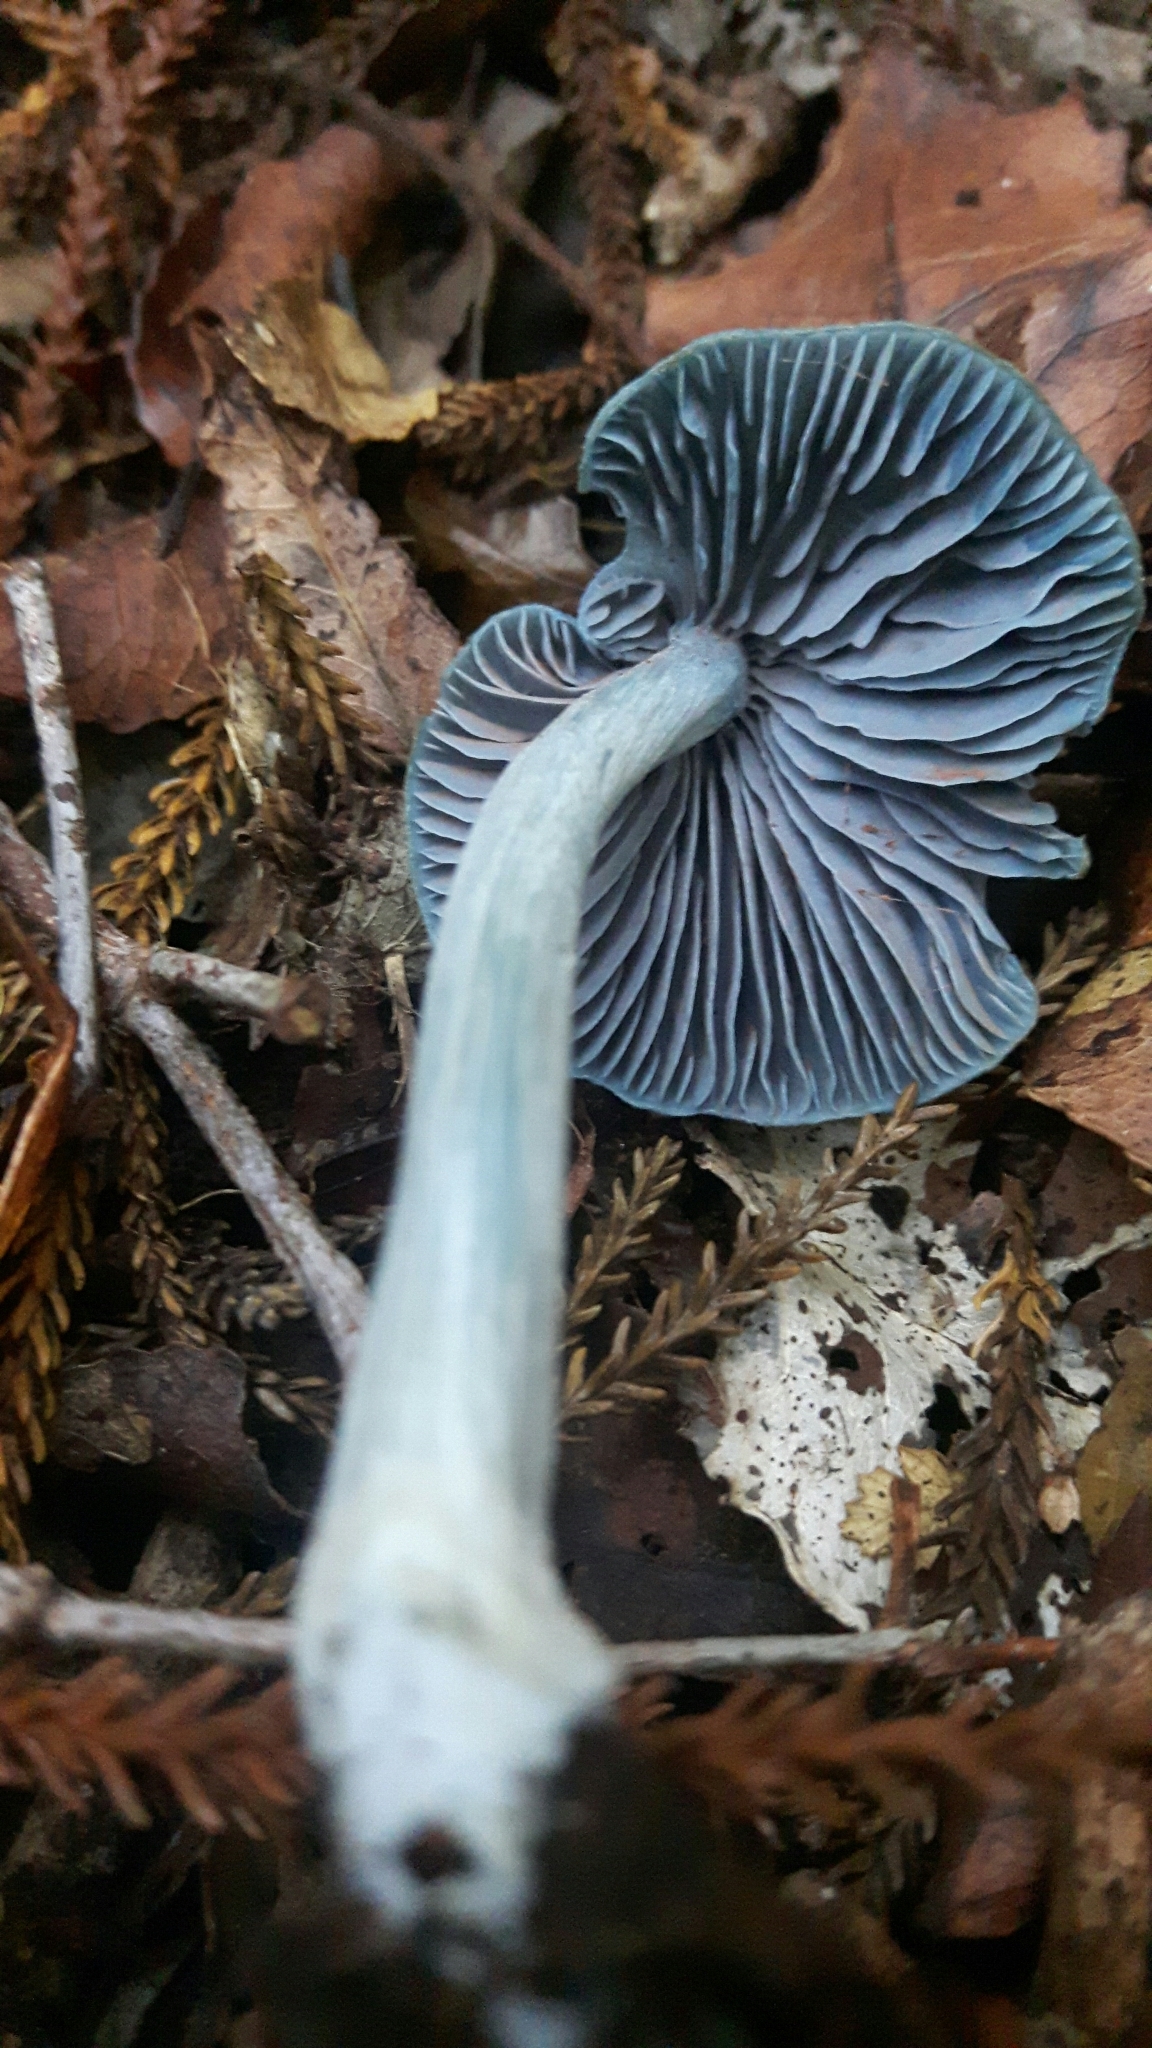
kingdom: Fungi
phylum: Basidiomycota
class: Agaricomycetes
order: Agaricales
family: Entolomataceae
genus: Entoloma
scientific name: Entoloma hochstetteri
